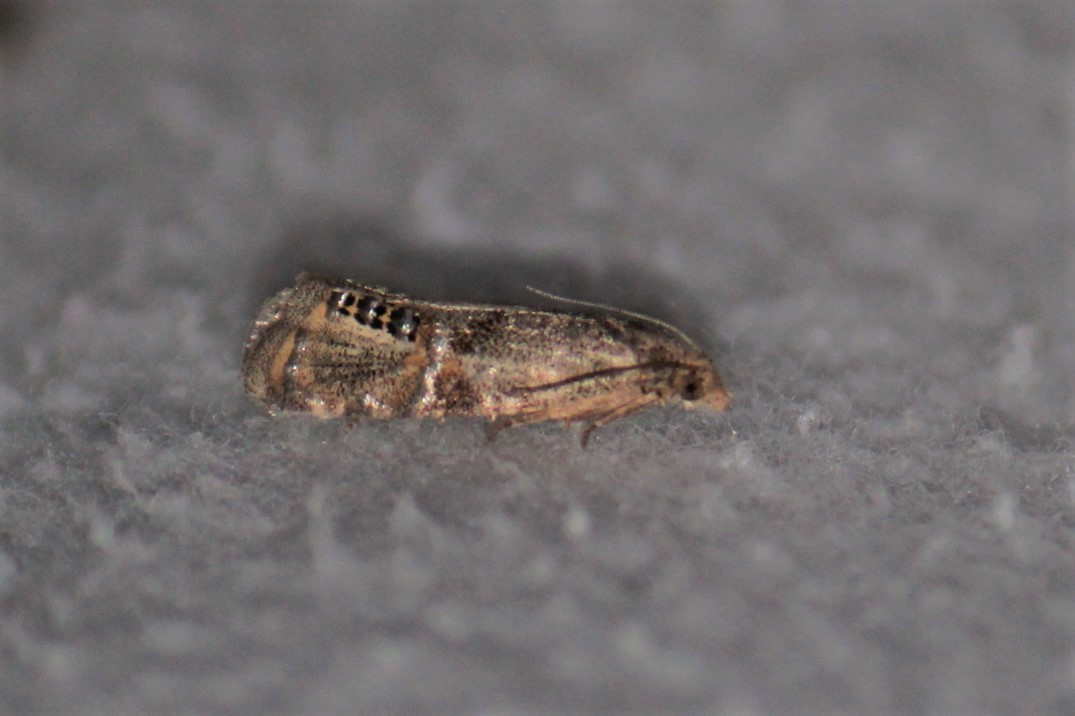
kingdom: Animalia
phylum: Arthropoda
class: Insecta
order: Lepidoptera
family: Tortricidae
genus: Pelochrista
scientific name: Pelochrista scintillana
